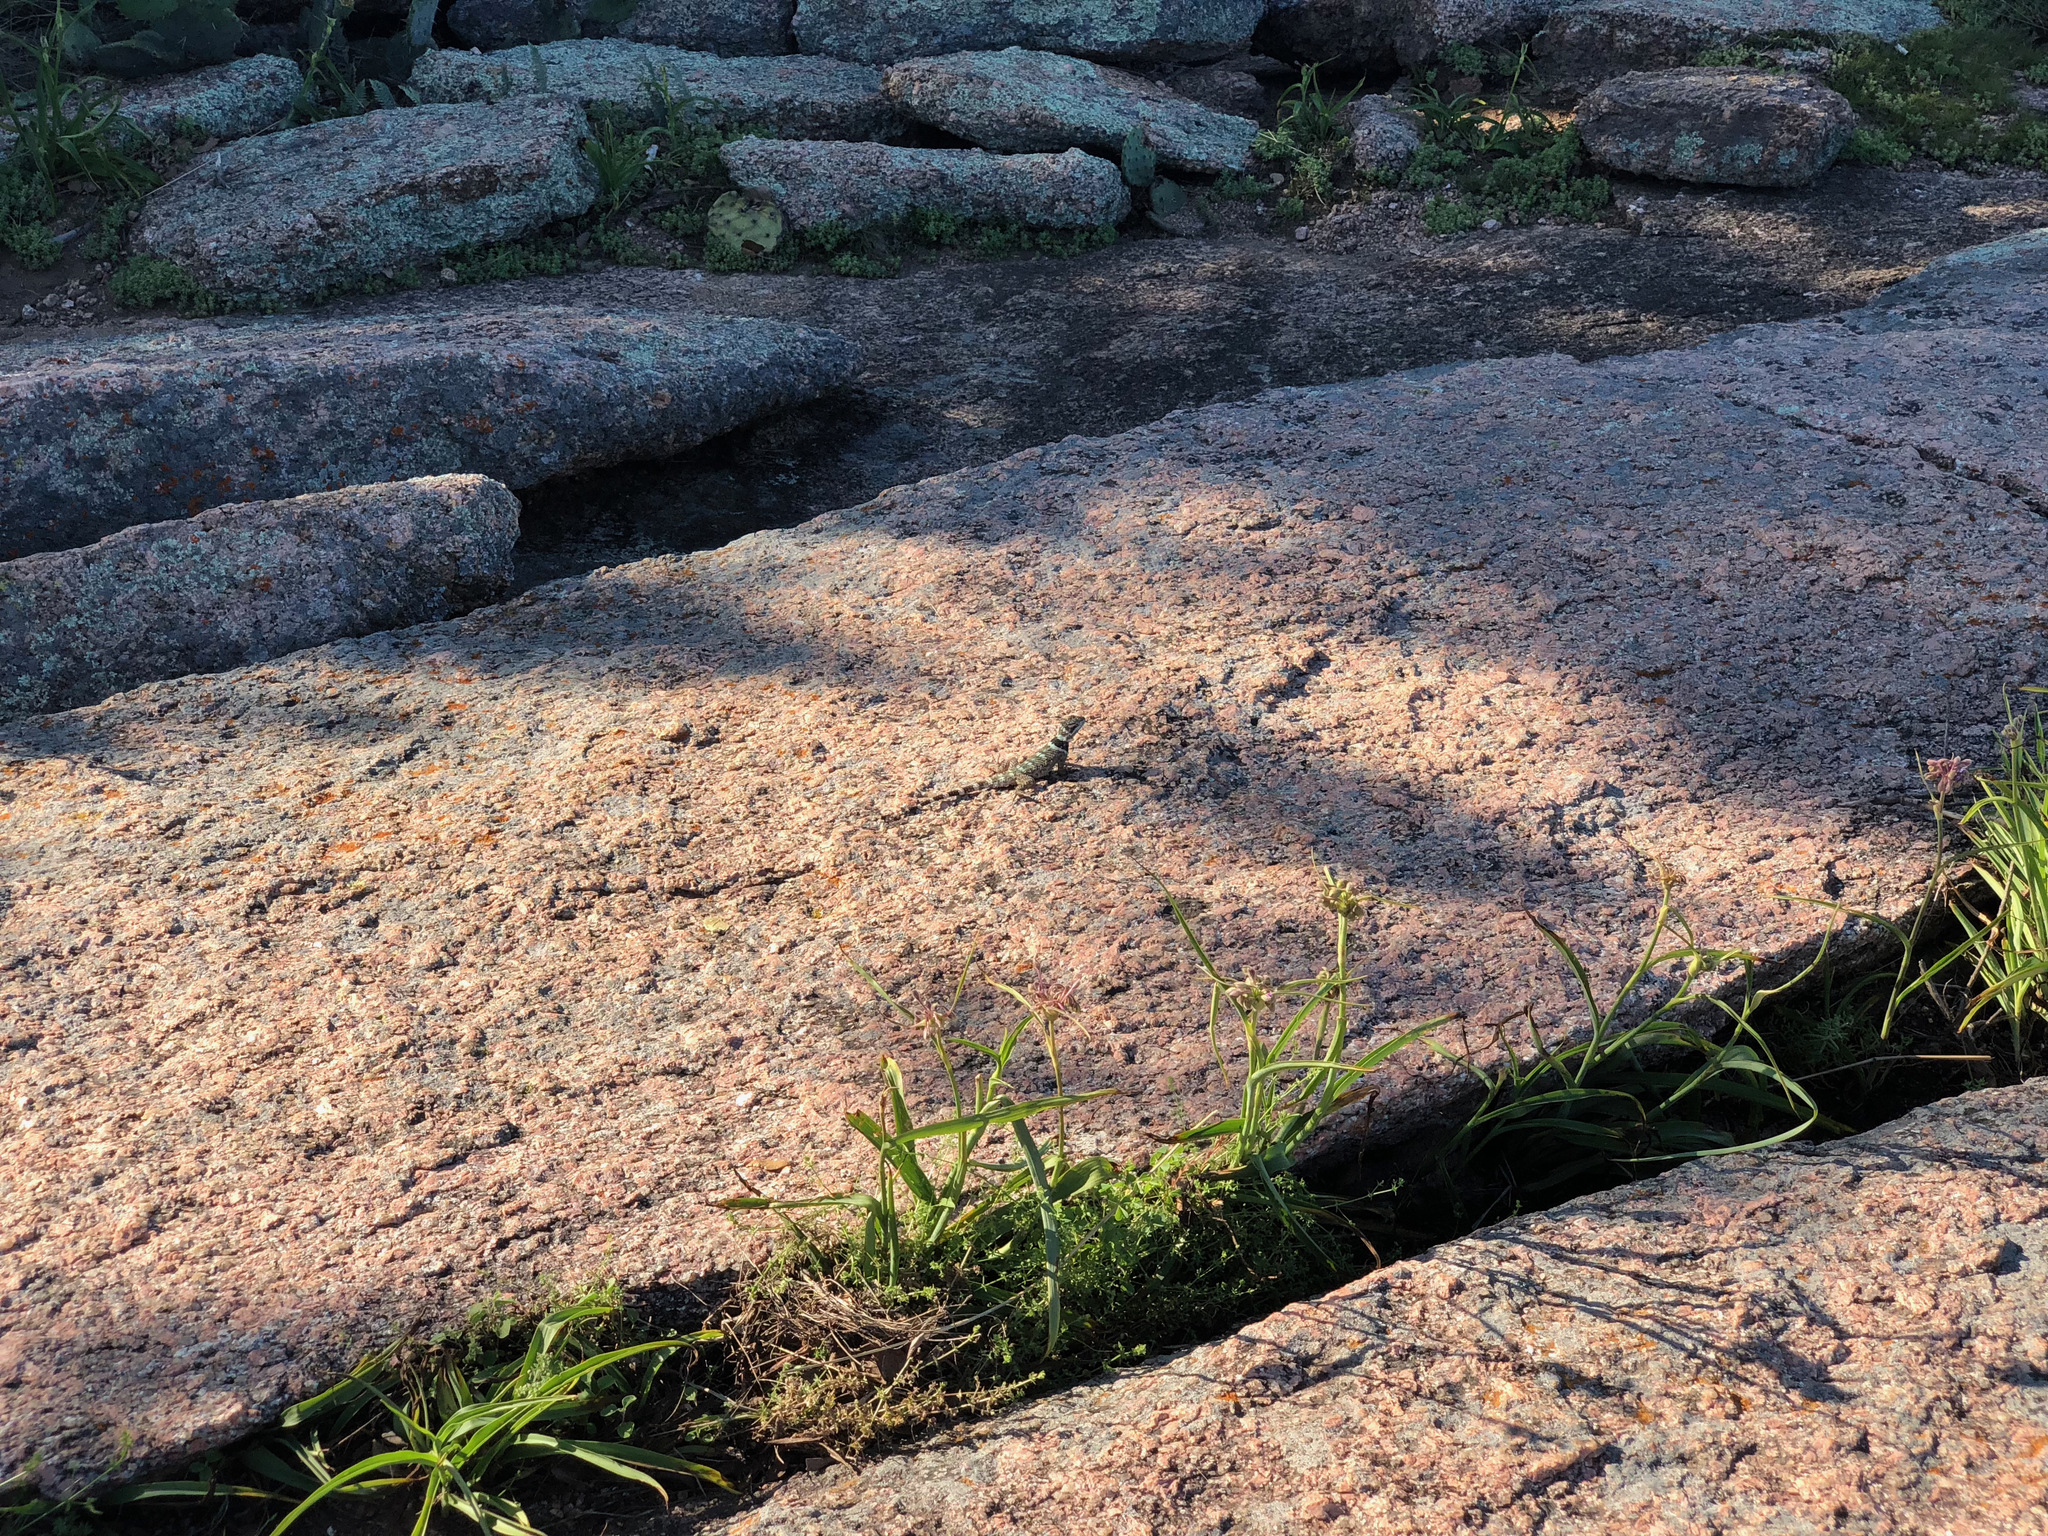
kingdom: Animalia
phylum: Chordata
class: Squamata
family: Phrynosomatidae
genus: Sceloporus
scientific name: Sceloporus poinsettii
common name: Crevice spiny lizard
